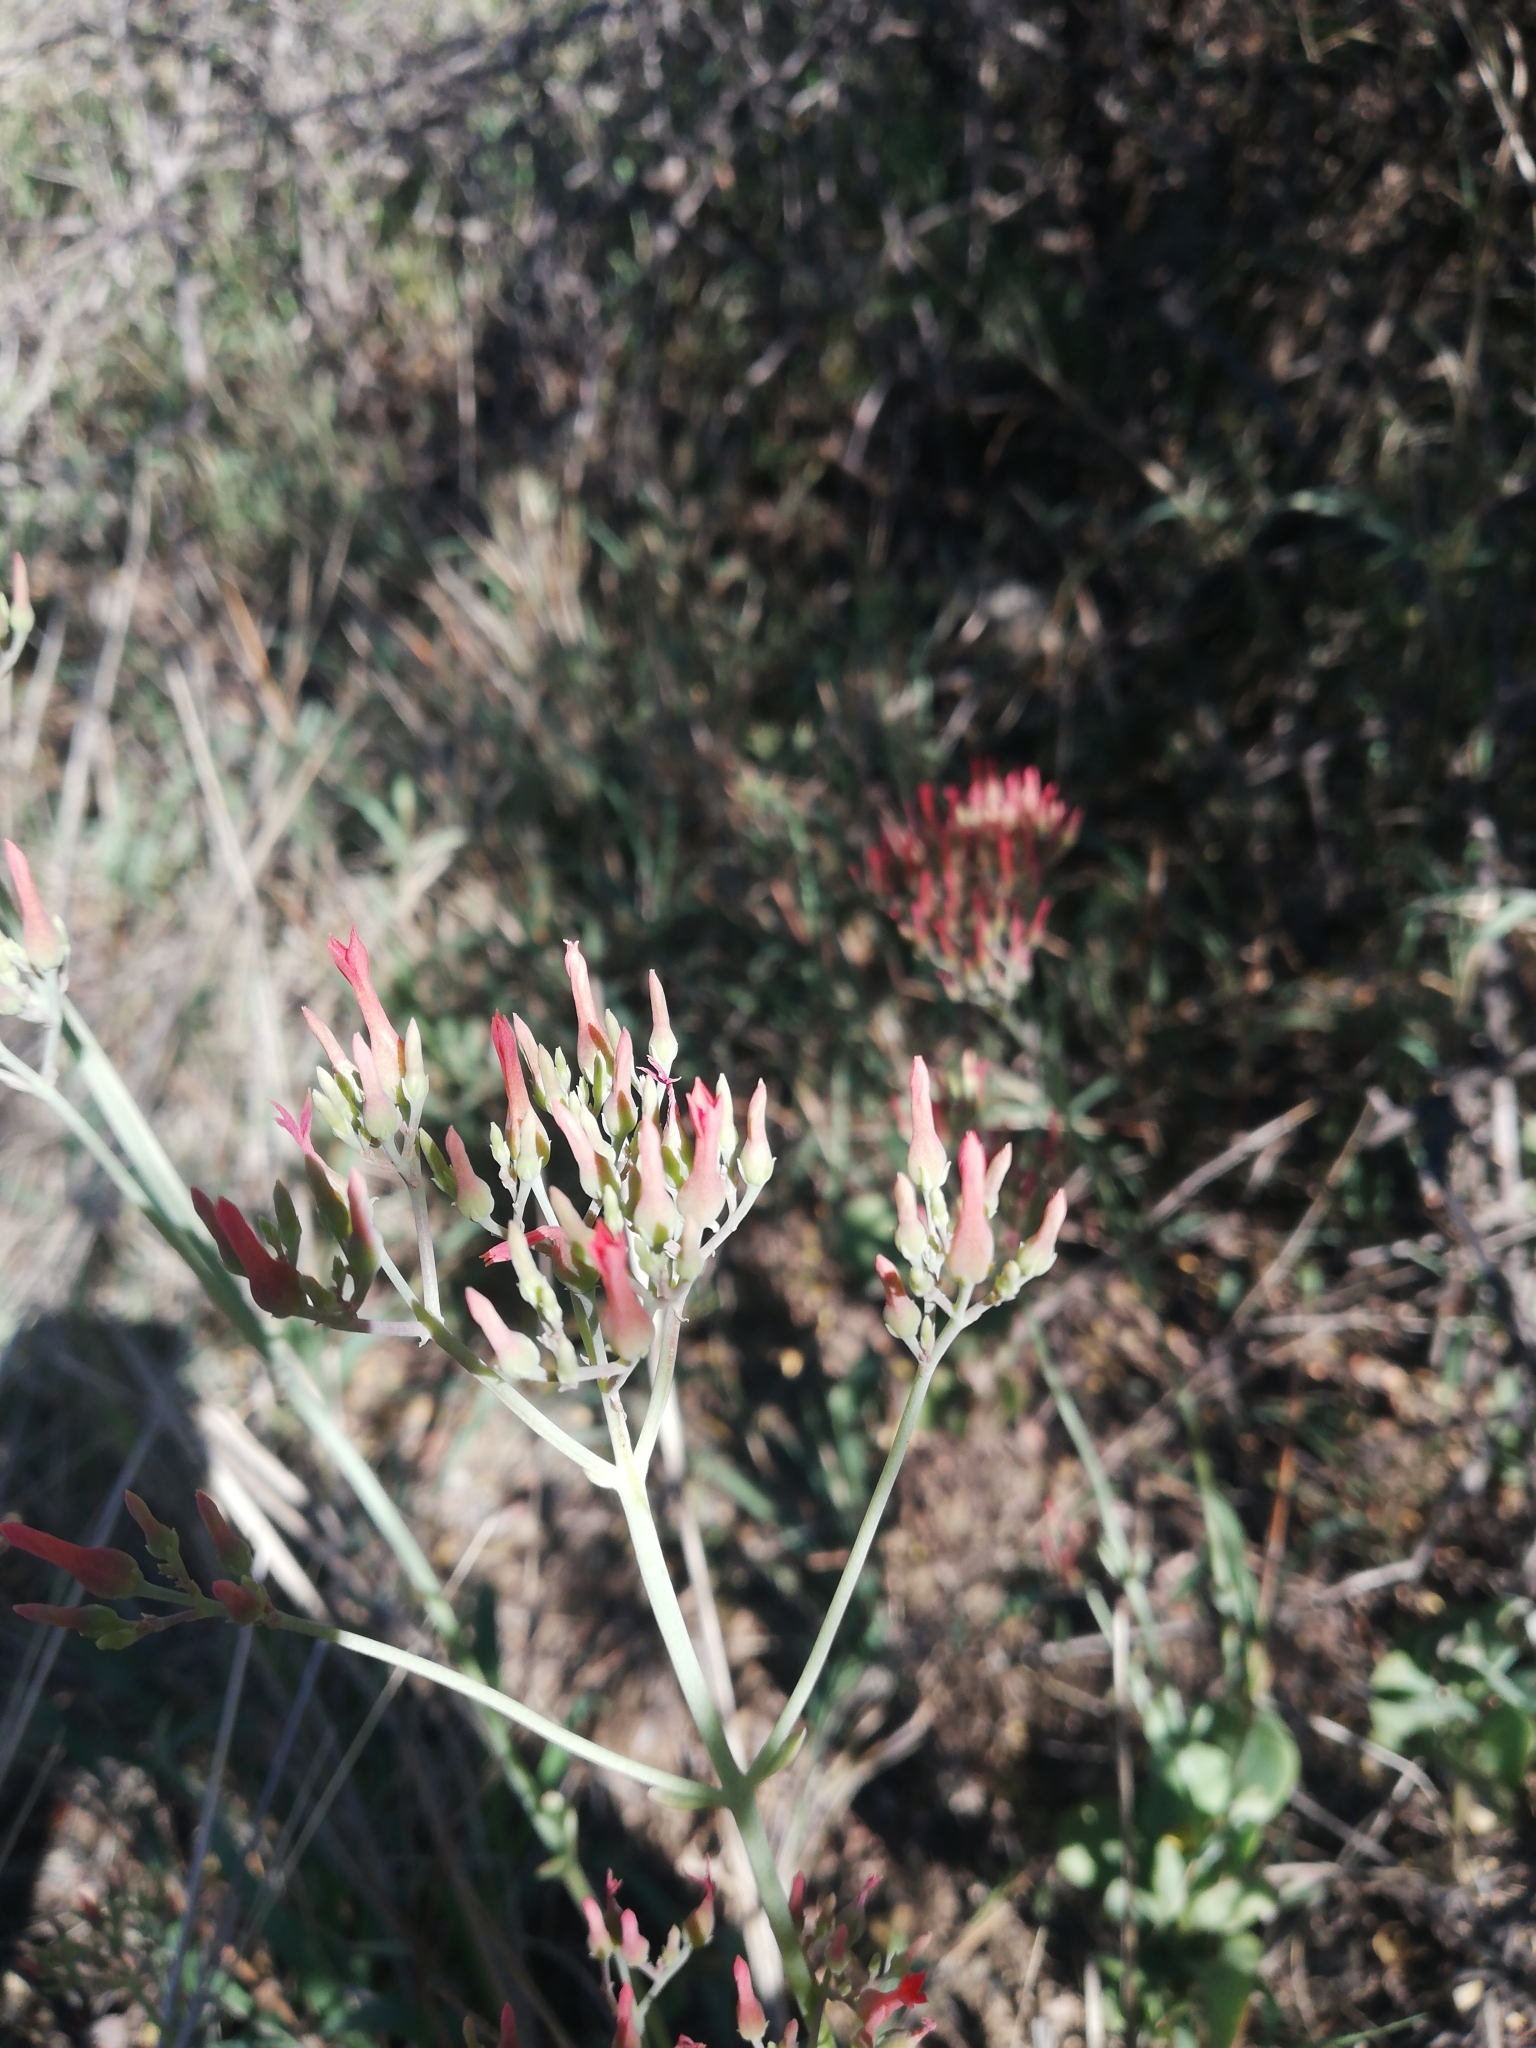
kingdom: Plantae
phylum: Tracheophyta
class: Magnoliopsida
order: Saxifragales
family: Crassulaceae
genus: Kalanchoe
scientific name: Kalanchoe rotundifolia
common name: Common kalanchoe
